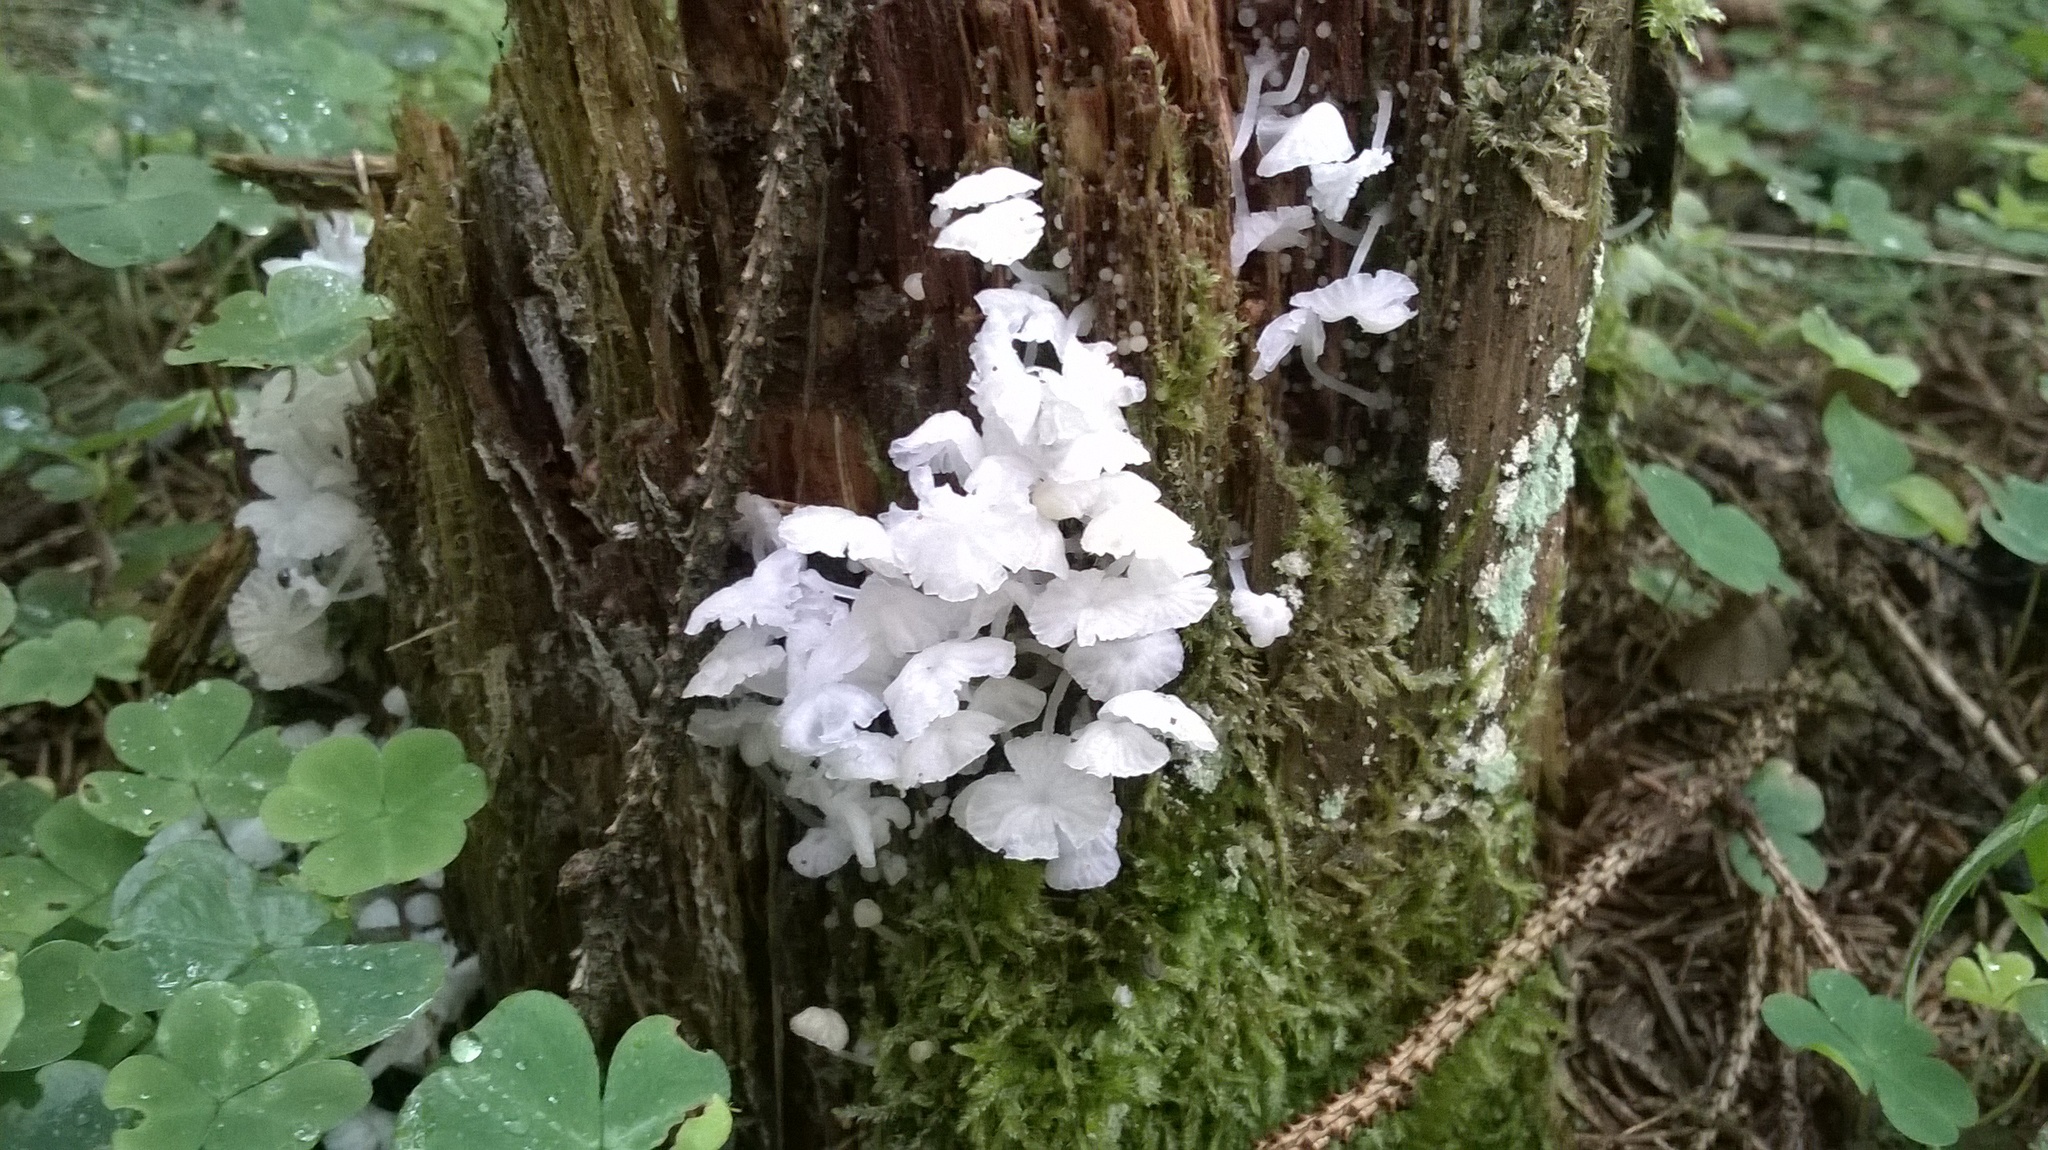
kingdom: Fungi
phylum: Basidiomycota
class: Agaricomycetes
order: Agaricales
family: Tricholomataceae
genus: Delicatula
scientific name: Delicatula integrella
